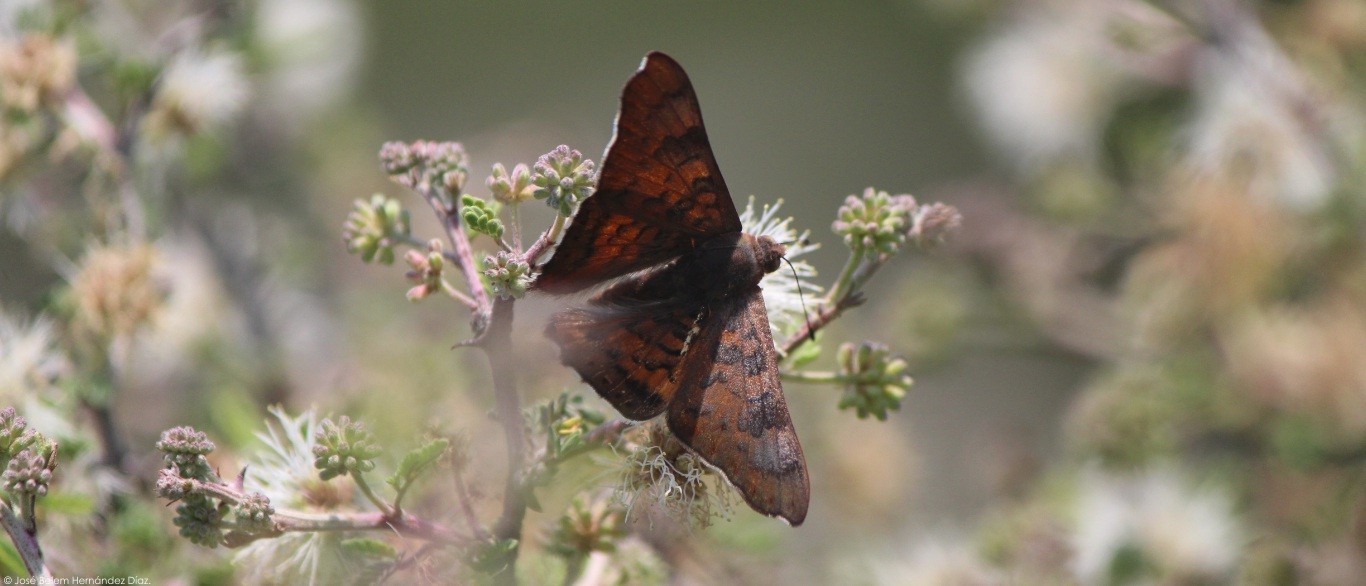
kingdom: Animalia
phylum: Arthropoda
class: Insecta
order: Lepidoptera
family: Riodinidae
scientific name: Riodinidae
